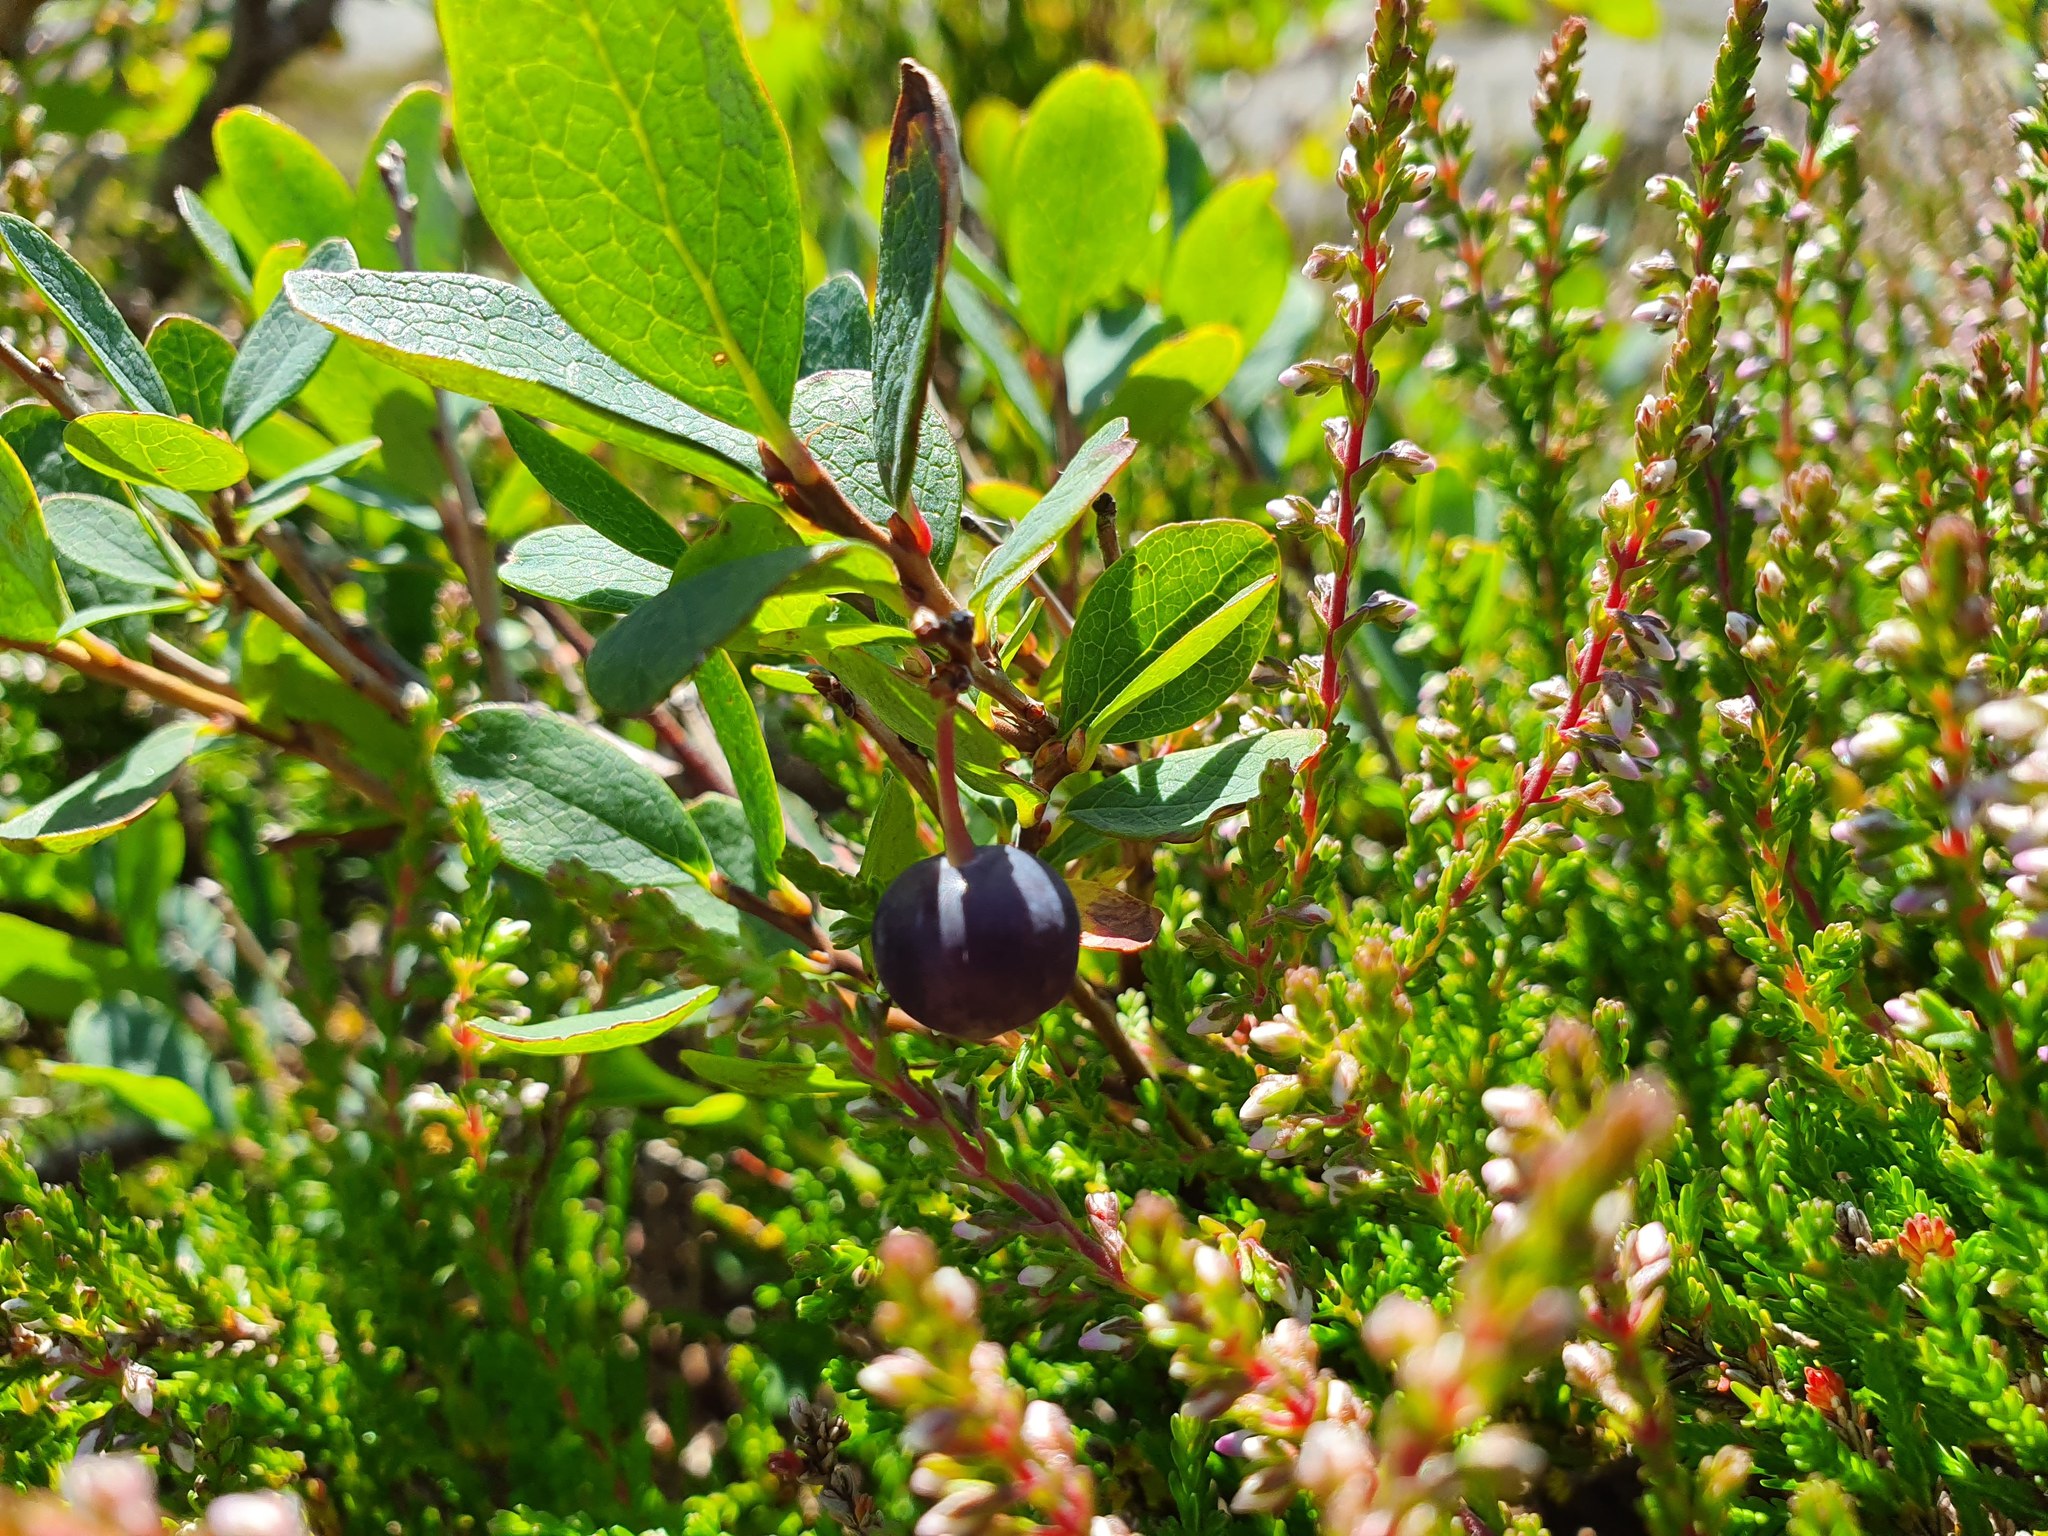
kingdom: Plantae
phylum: Tracheophyta
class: Magnoliopsida
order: Ericales
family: Ericaceae
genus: Vaccinium
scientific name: Vaccinium uliginosum
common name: Bog bilberry
